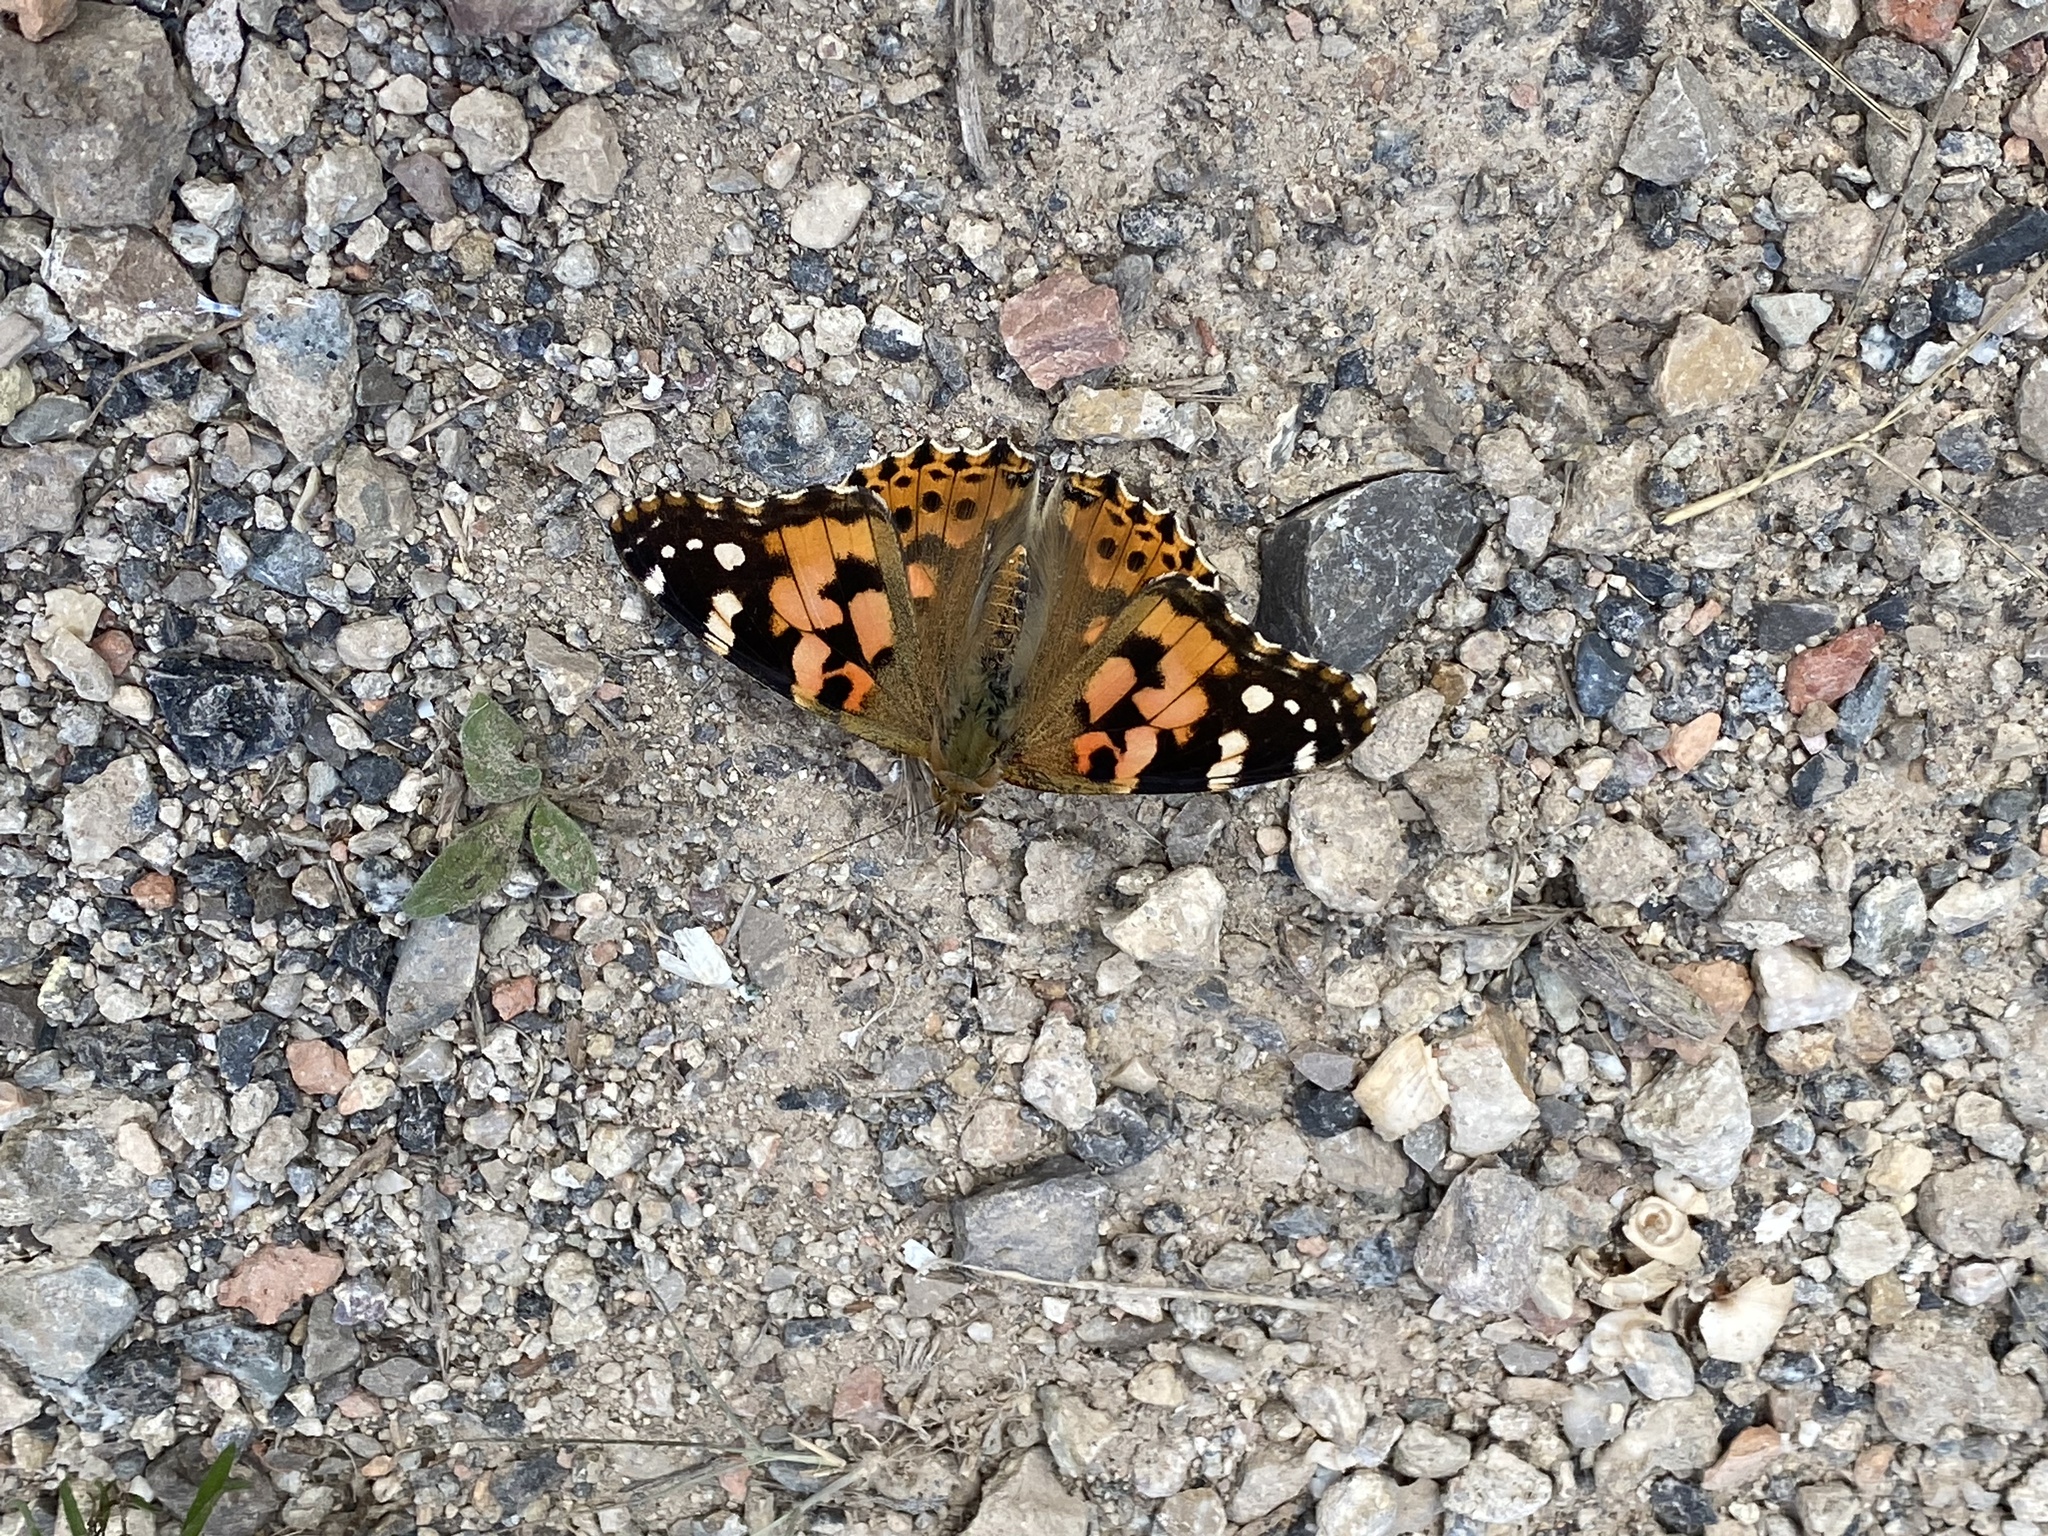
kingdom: Animalia
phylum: Arthropoda
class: Insecta
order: Lepidoptera
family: Nymphalidae
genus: Vanessa
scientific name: Vanessa cardui
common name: Painted lady
